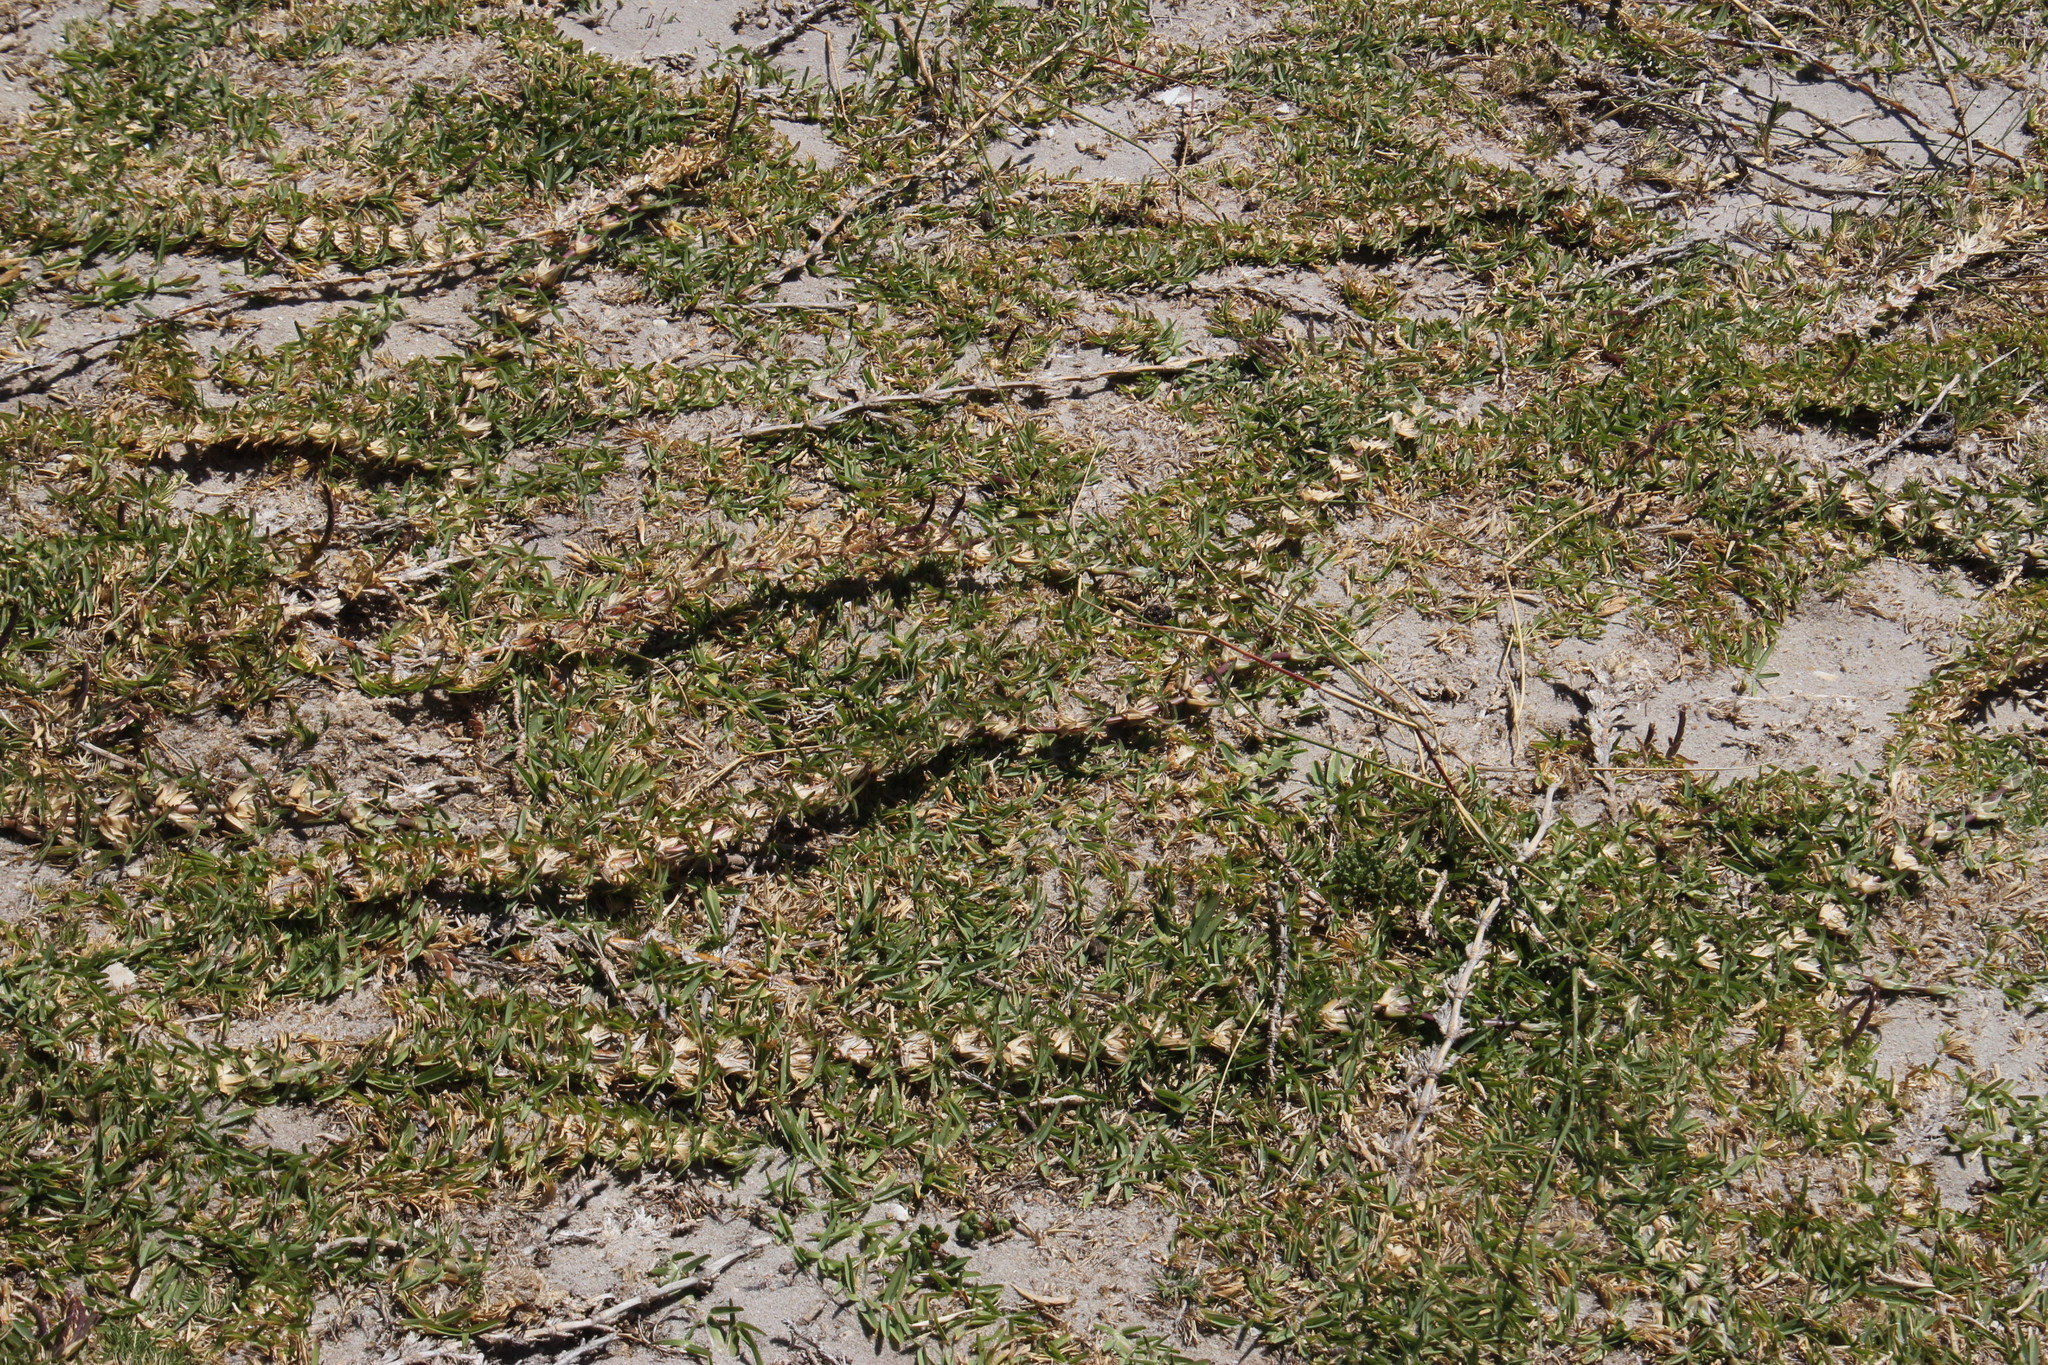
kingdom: Plantae
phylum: Tracheophyta
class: Liliopsida
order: Poales
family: Poaceae
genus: Stenotaphrum
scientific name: Stenotaphrum secundatum
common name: St. augustine grass
